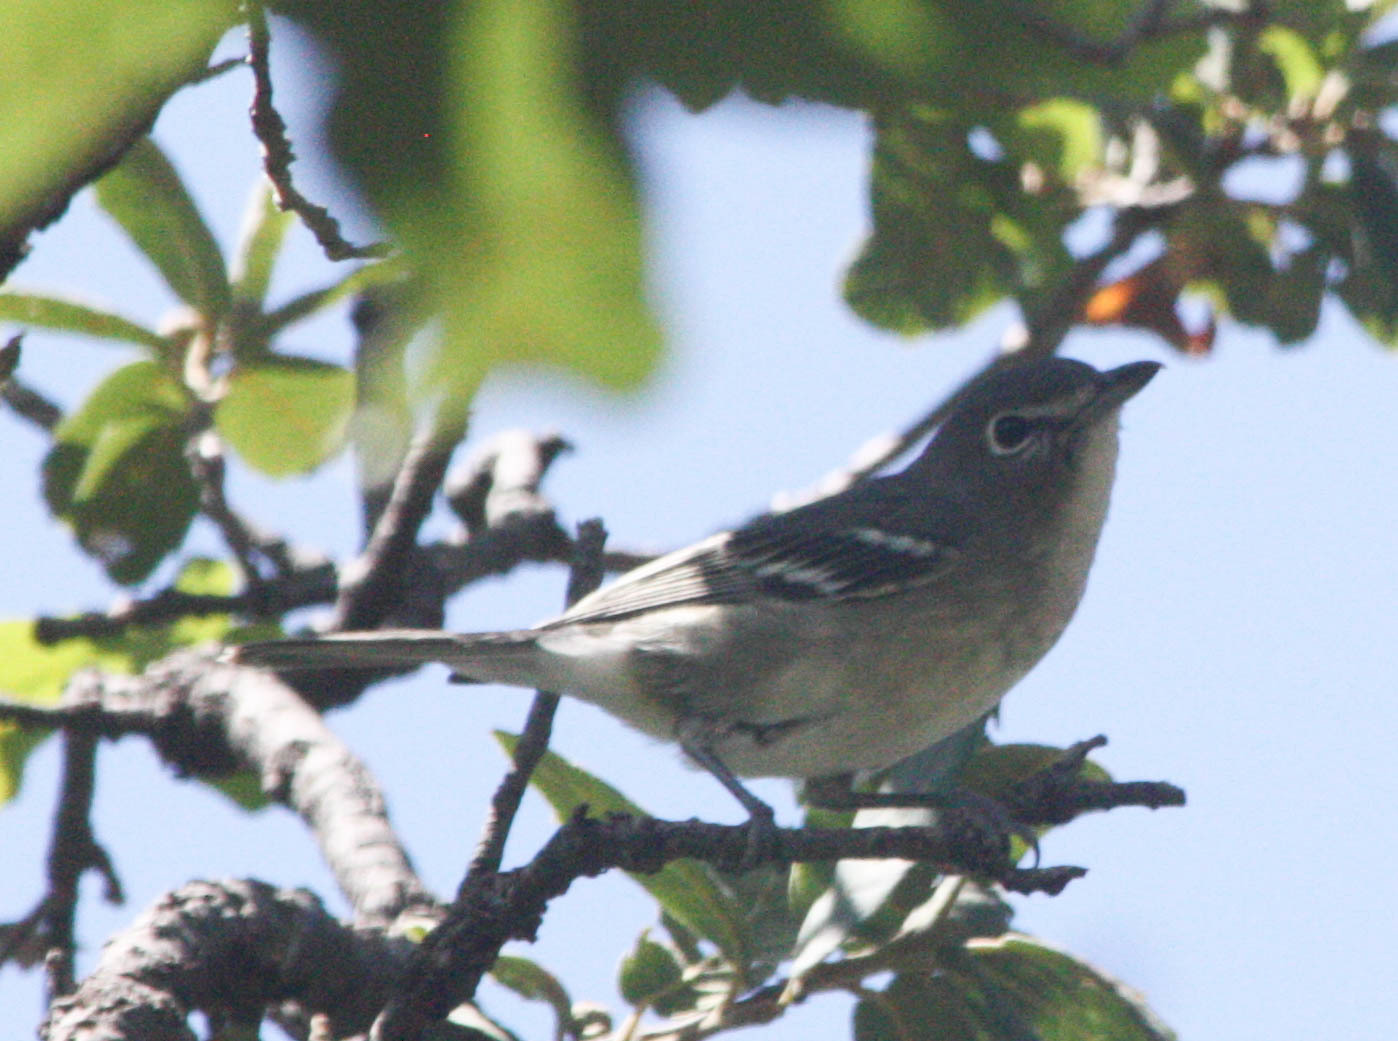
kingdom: Animalia
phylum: Chordata
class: Aves
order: Passeriformes
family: Vireonidae
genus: Vireo
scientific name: Vireo plumbeus
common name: Plumbeous vireo
